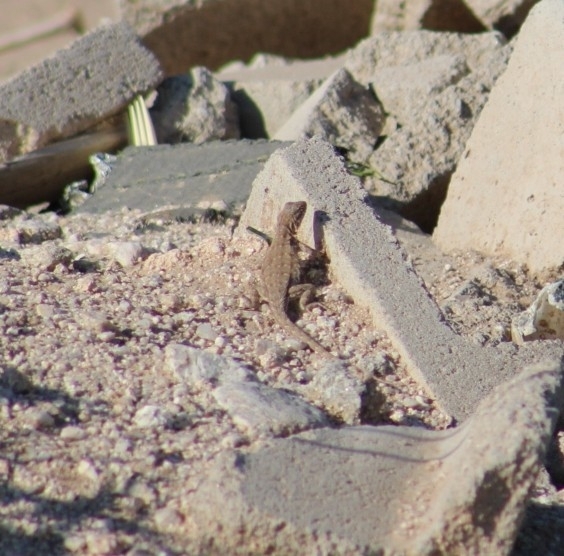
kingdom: Animalia
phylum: Chordata
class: Squamata
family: Phrynosomatidae
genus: Uta
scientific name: Uta stansburiana
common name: Side-blotched lizard
